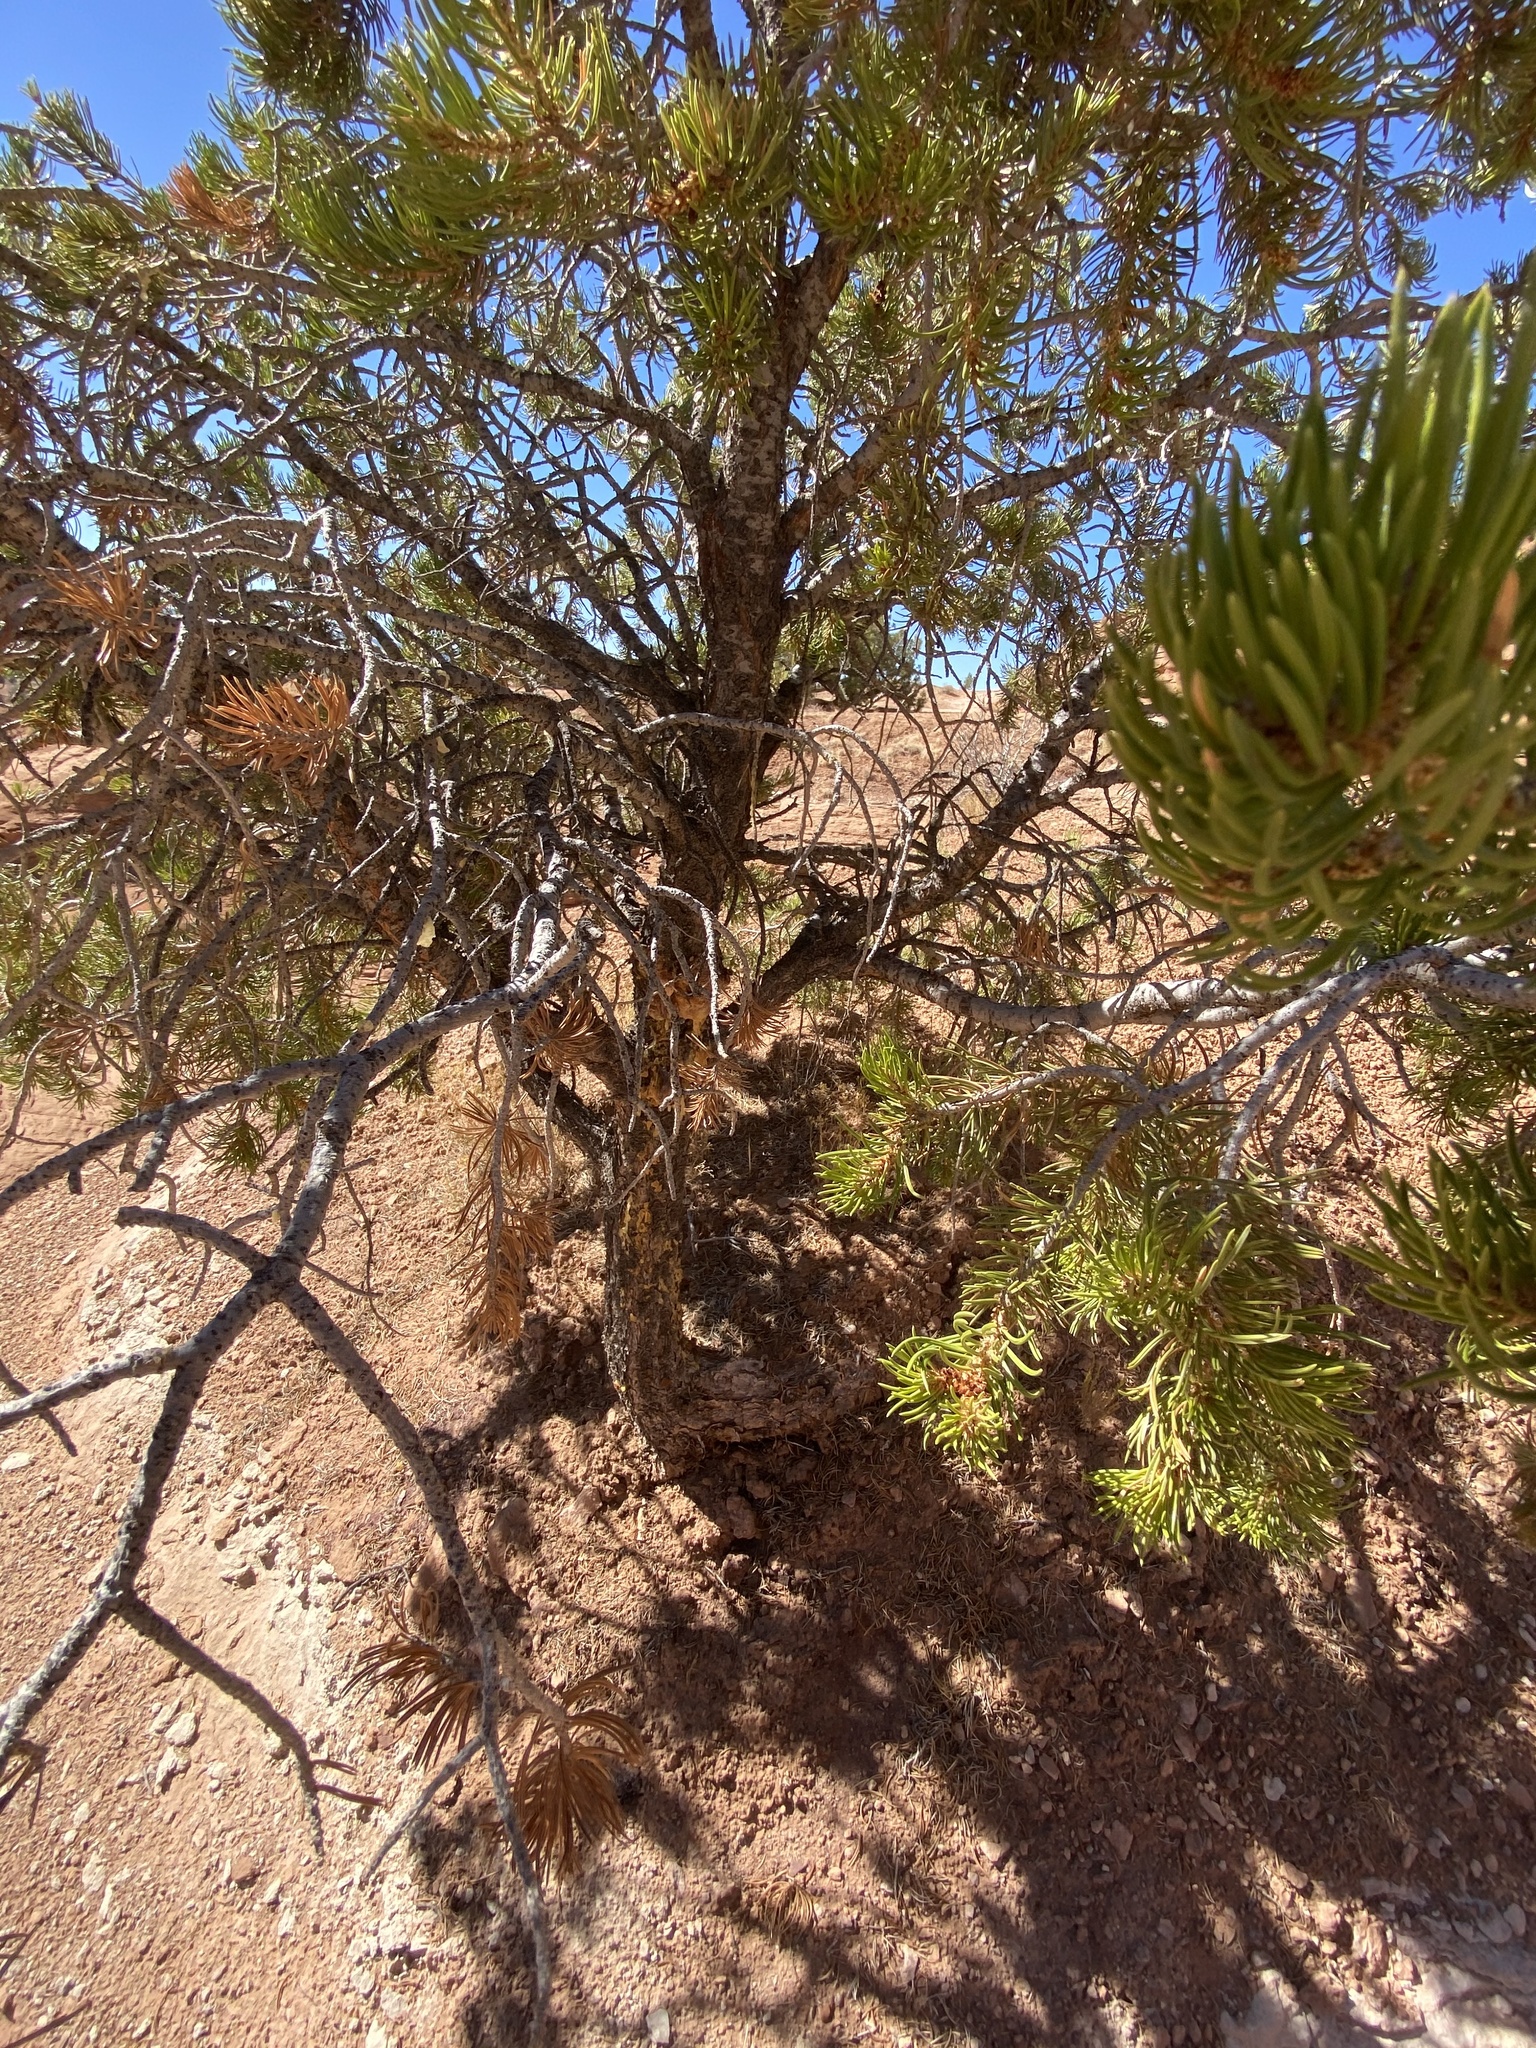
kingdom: Plantae
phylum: Tracheophyta
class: Pinopsida
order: Pinales
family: Pinaceae
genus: Pinus
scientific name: Pinus edulis
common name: Colorado pinyon
